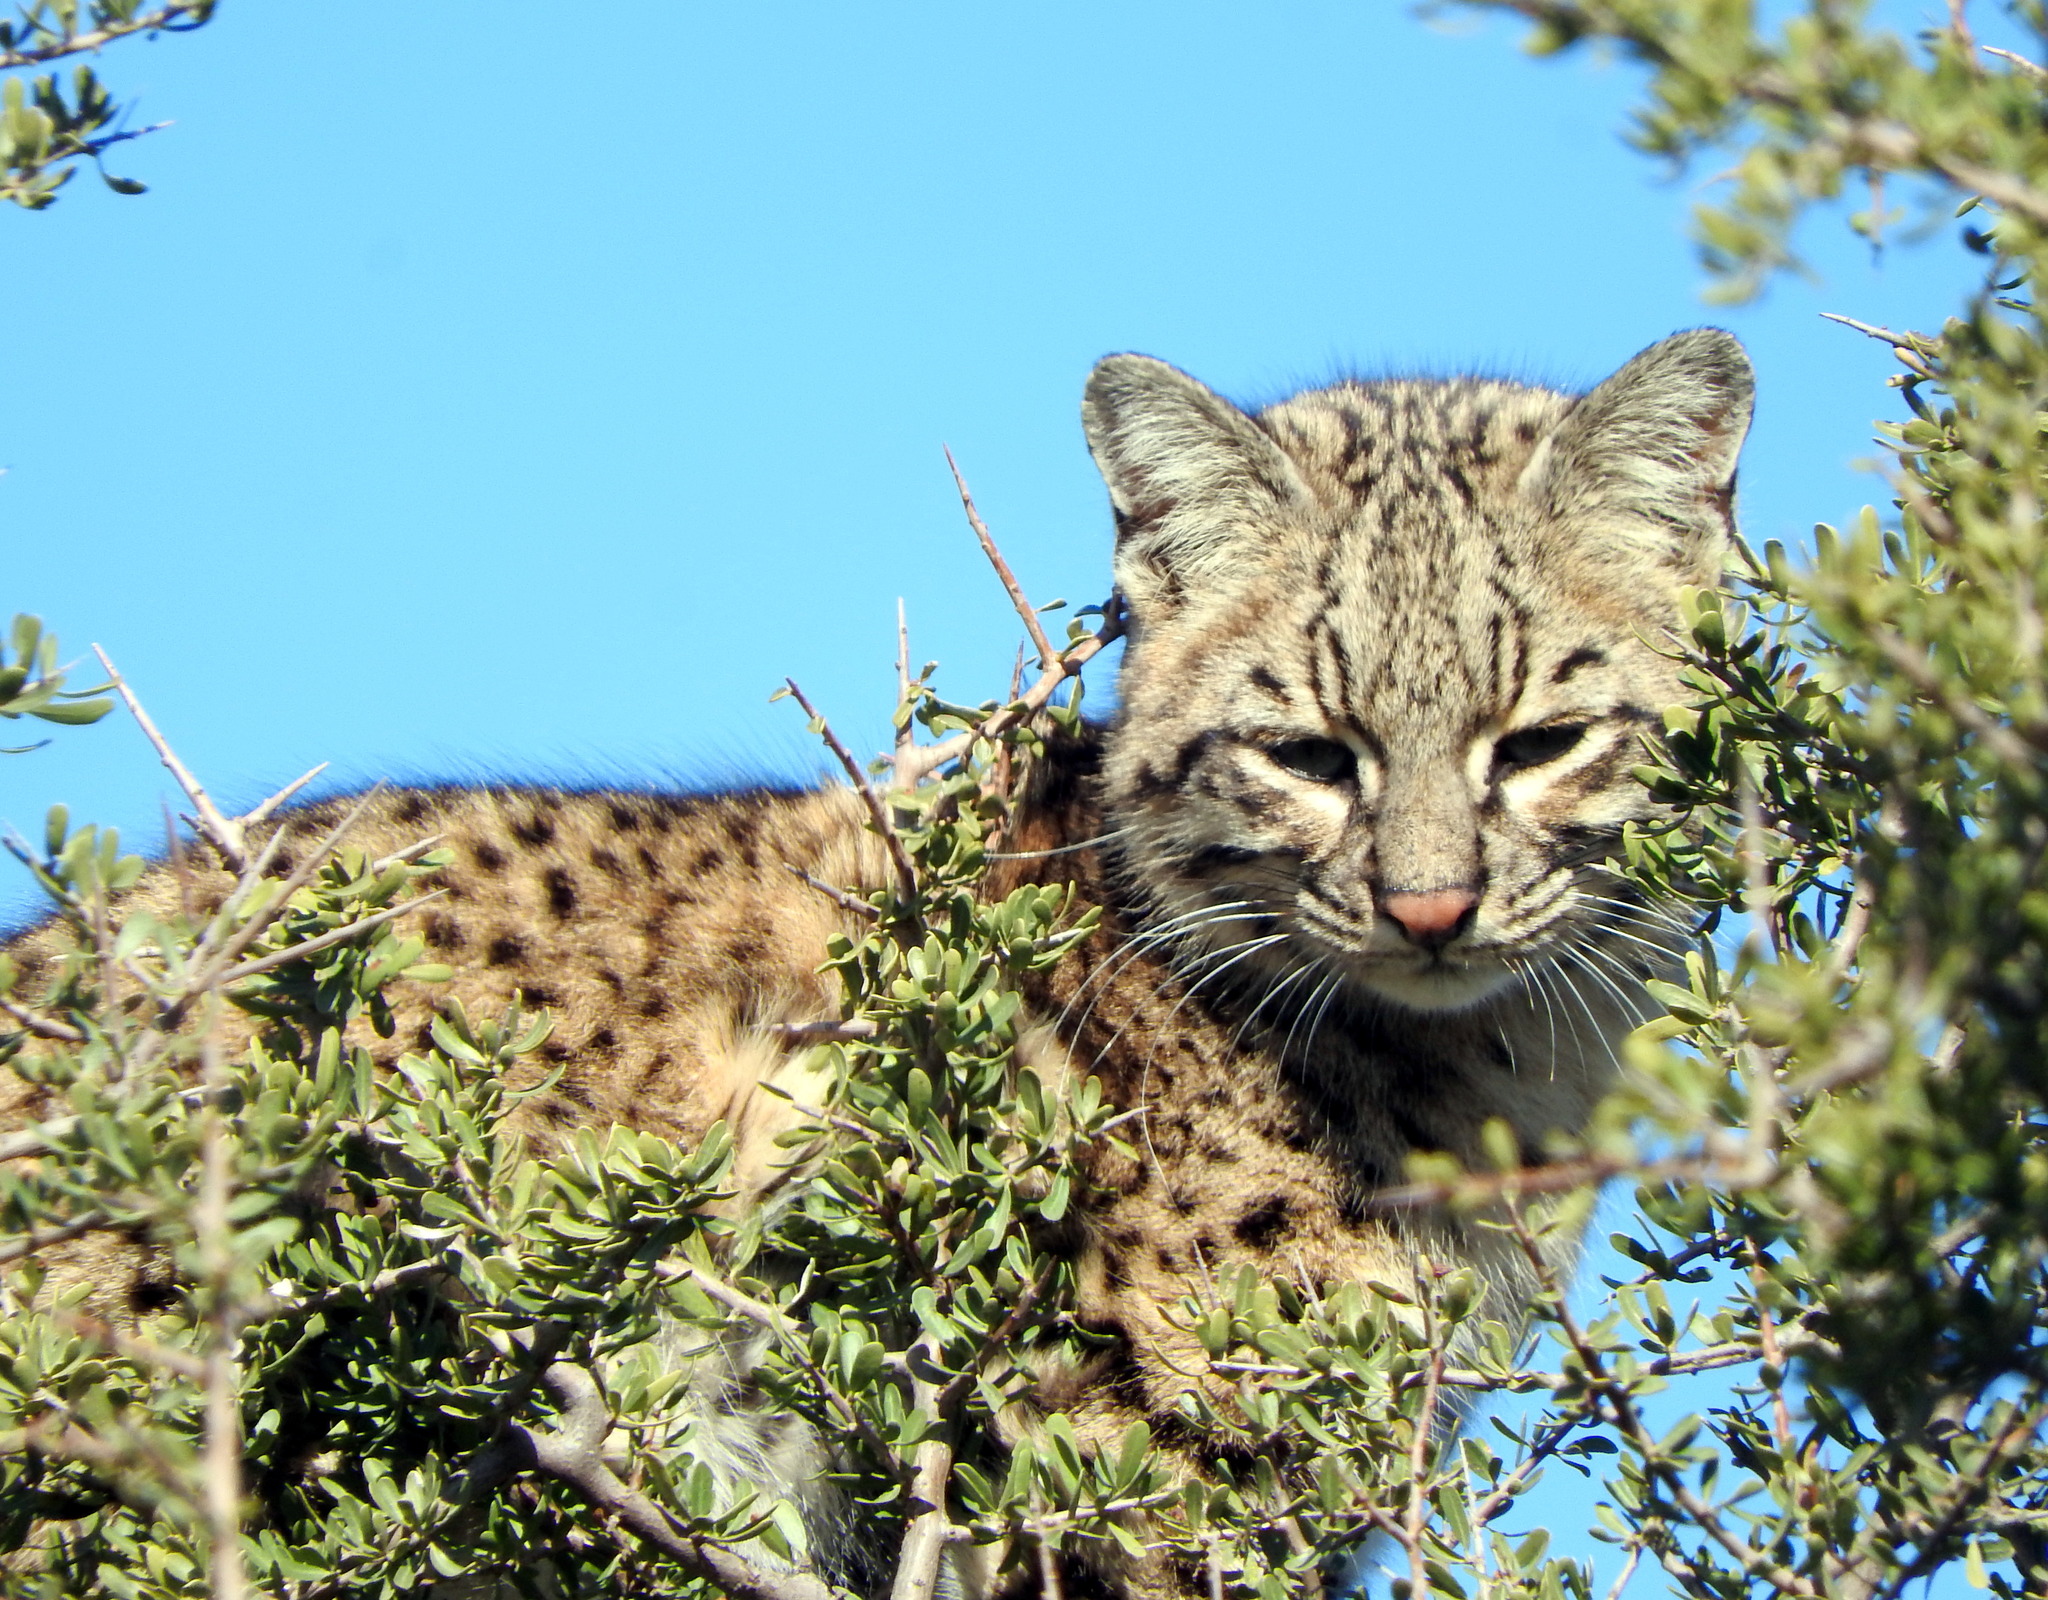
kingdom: Animalia
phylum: Chordata
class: Mammalia
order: Carnivora
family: Felidae
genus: Leopardus
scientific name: Leopardus geoffroyi
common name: Geoffroy's cat
